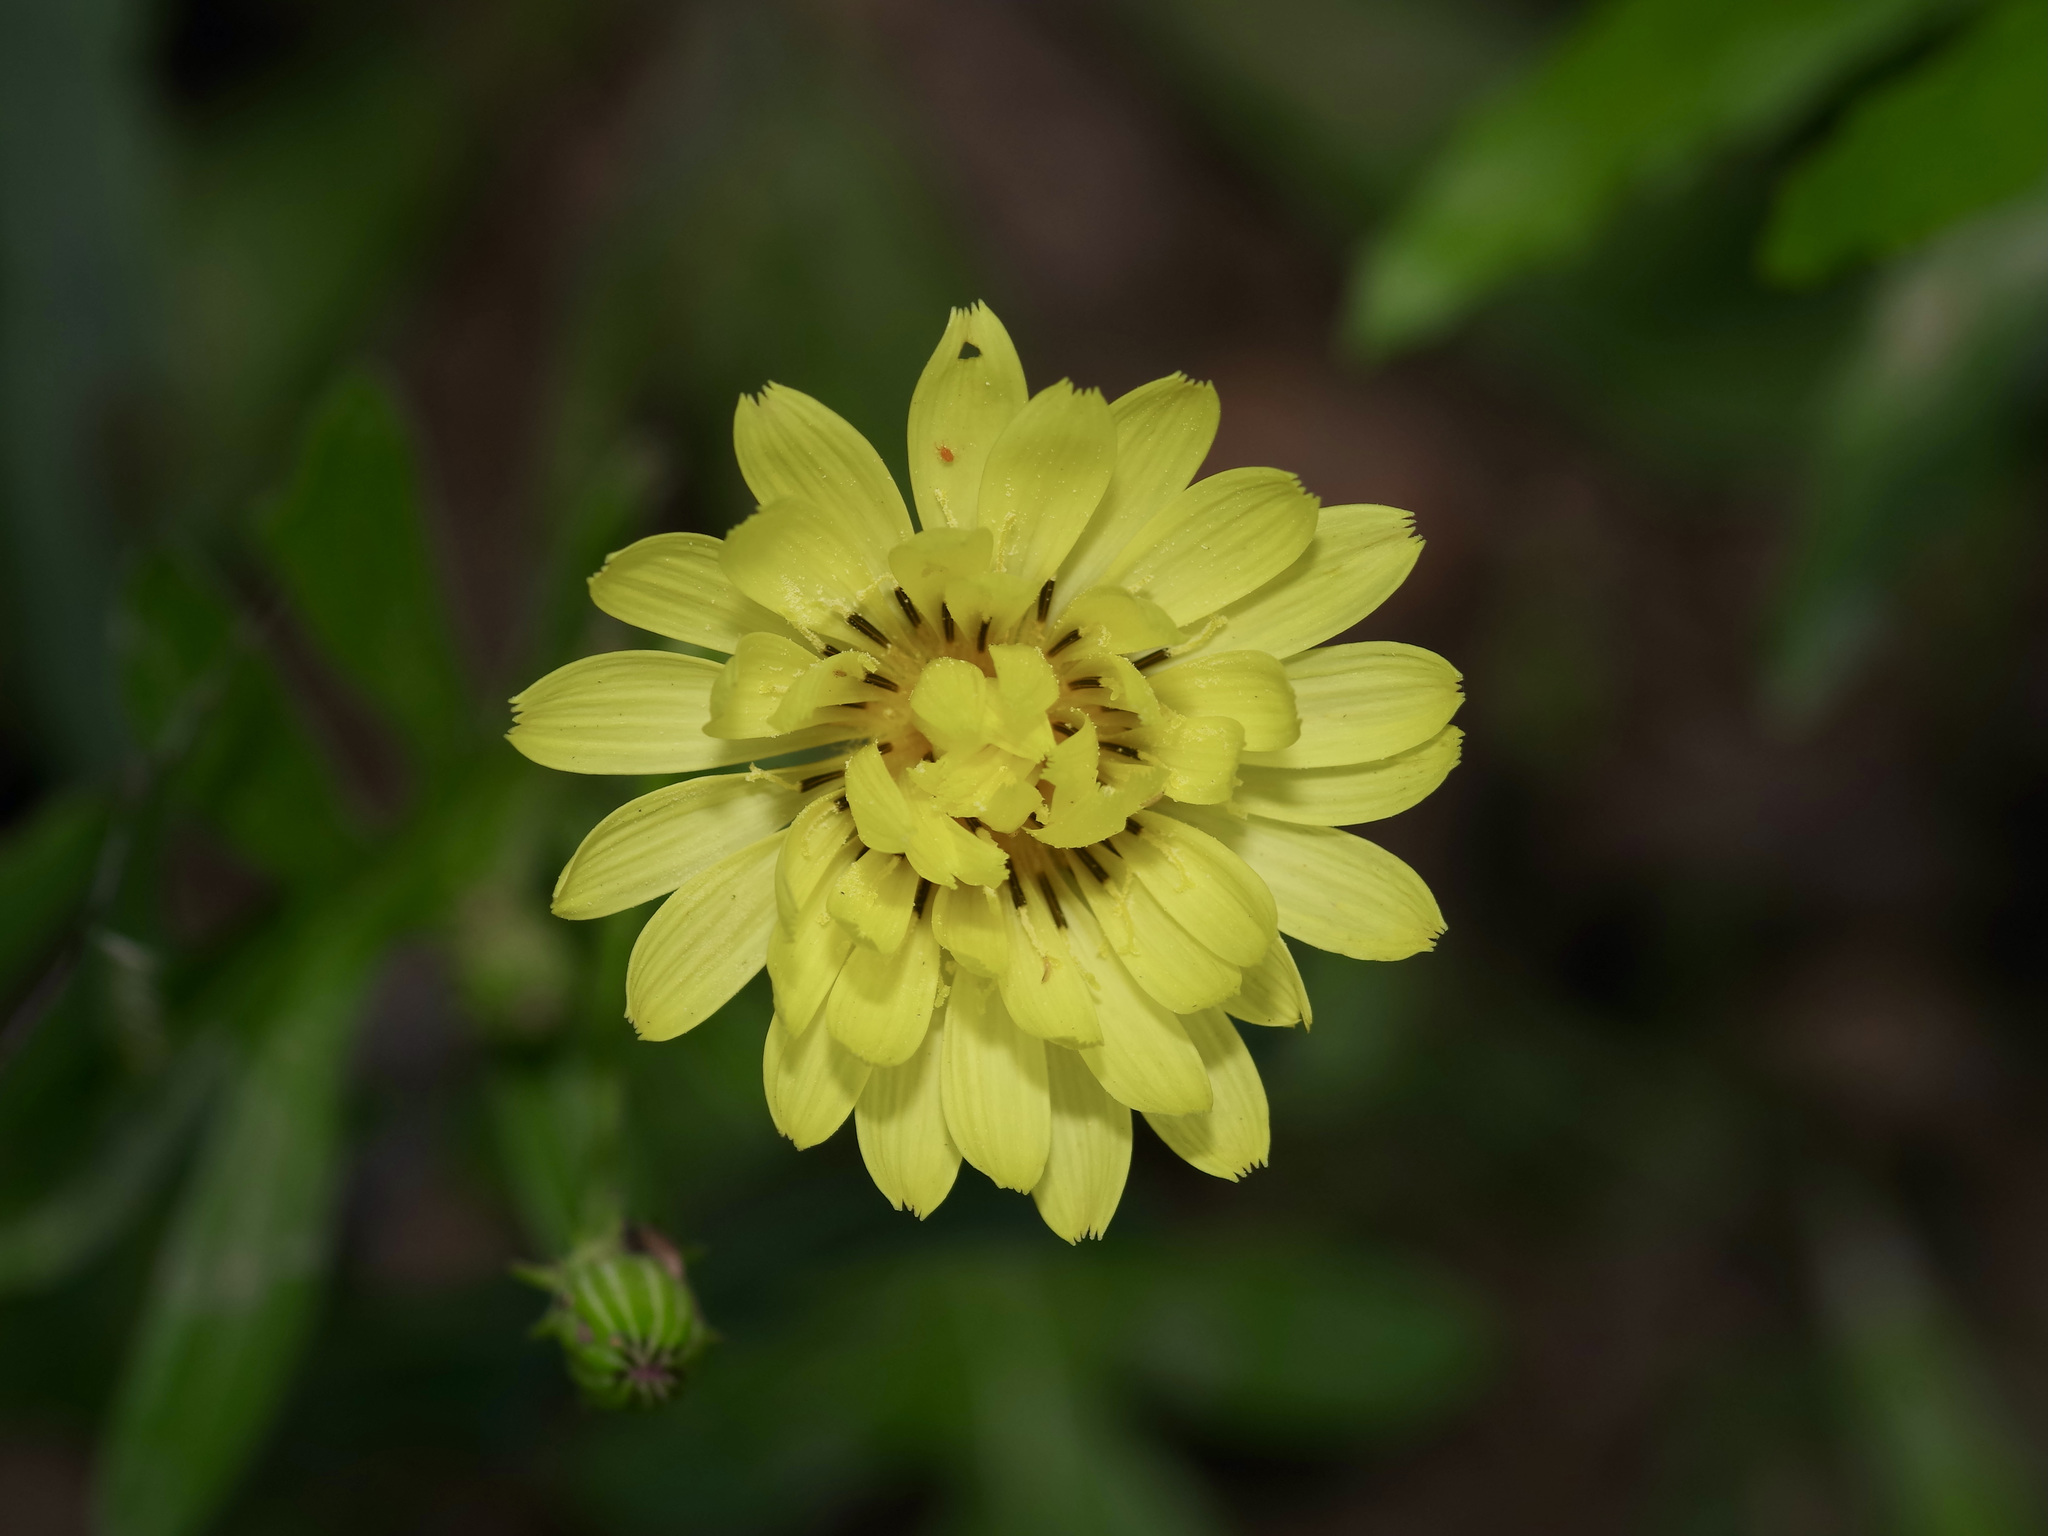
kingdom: Plantae
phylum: Tracheophyta
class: Magnoliopsida
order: Asterales
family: Asteraceae
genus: Pyrrhopappus
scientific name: Pyrrhopappus pauciflorus
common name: Texas false dandelion
